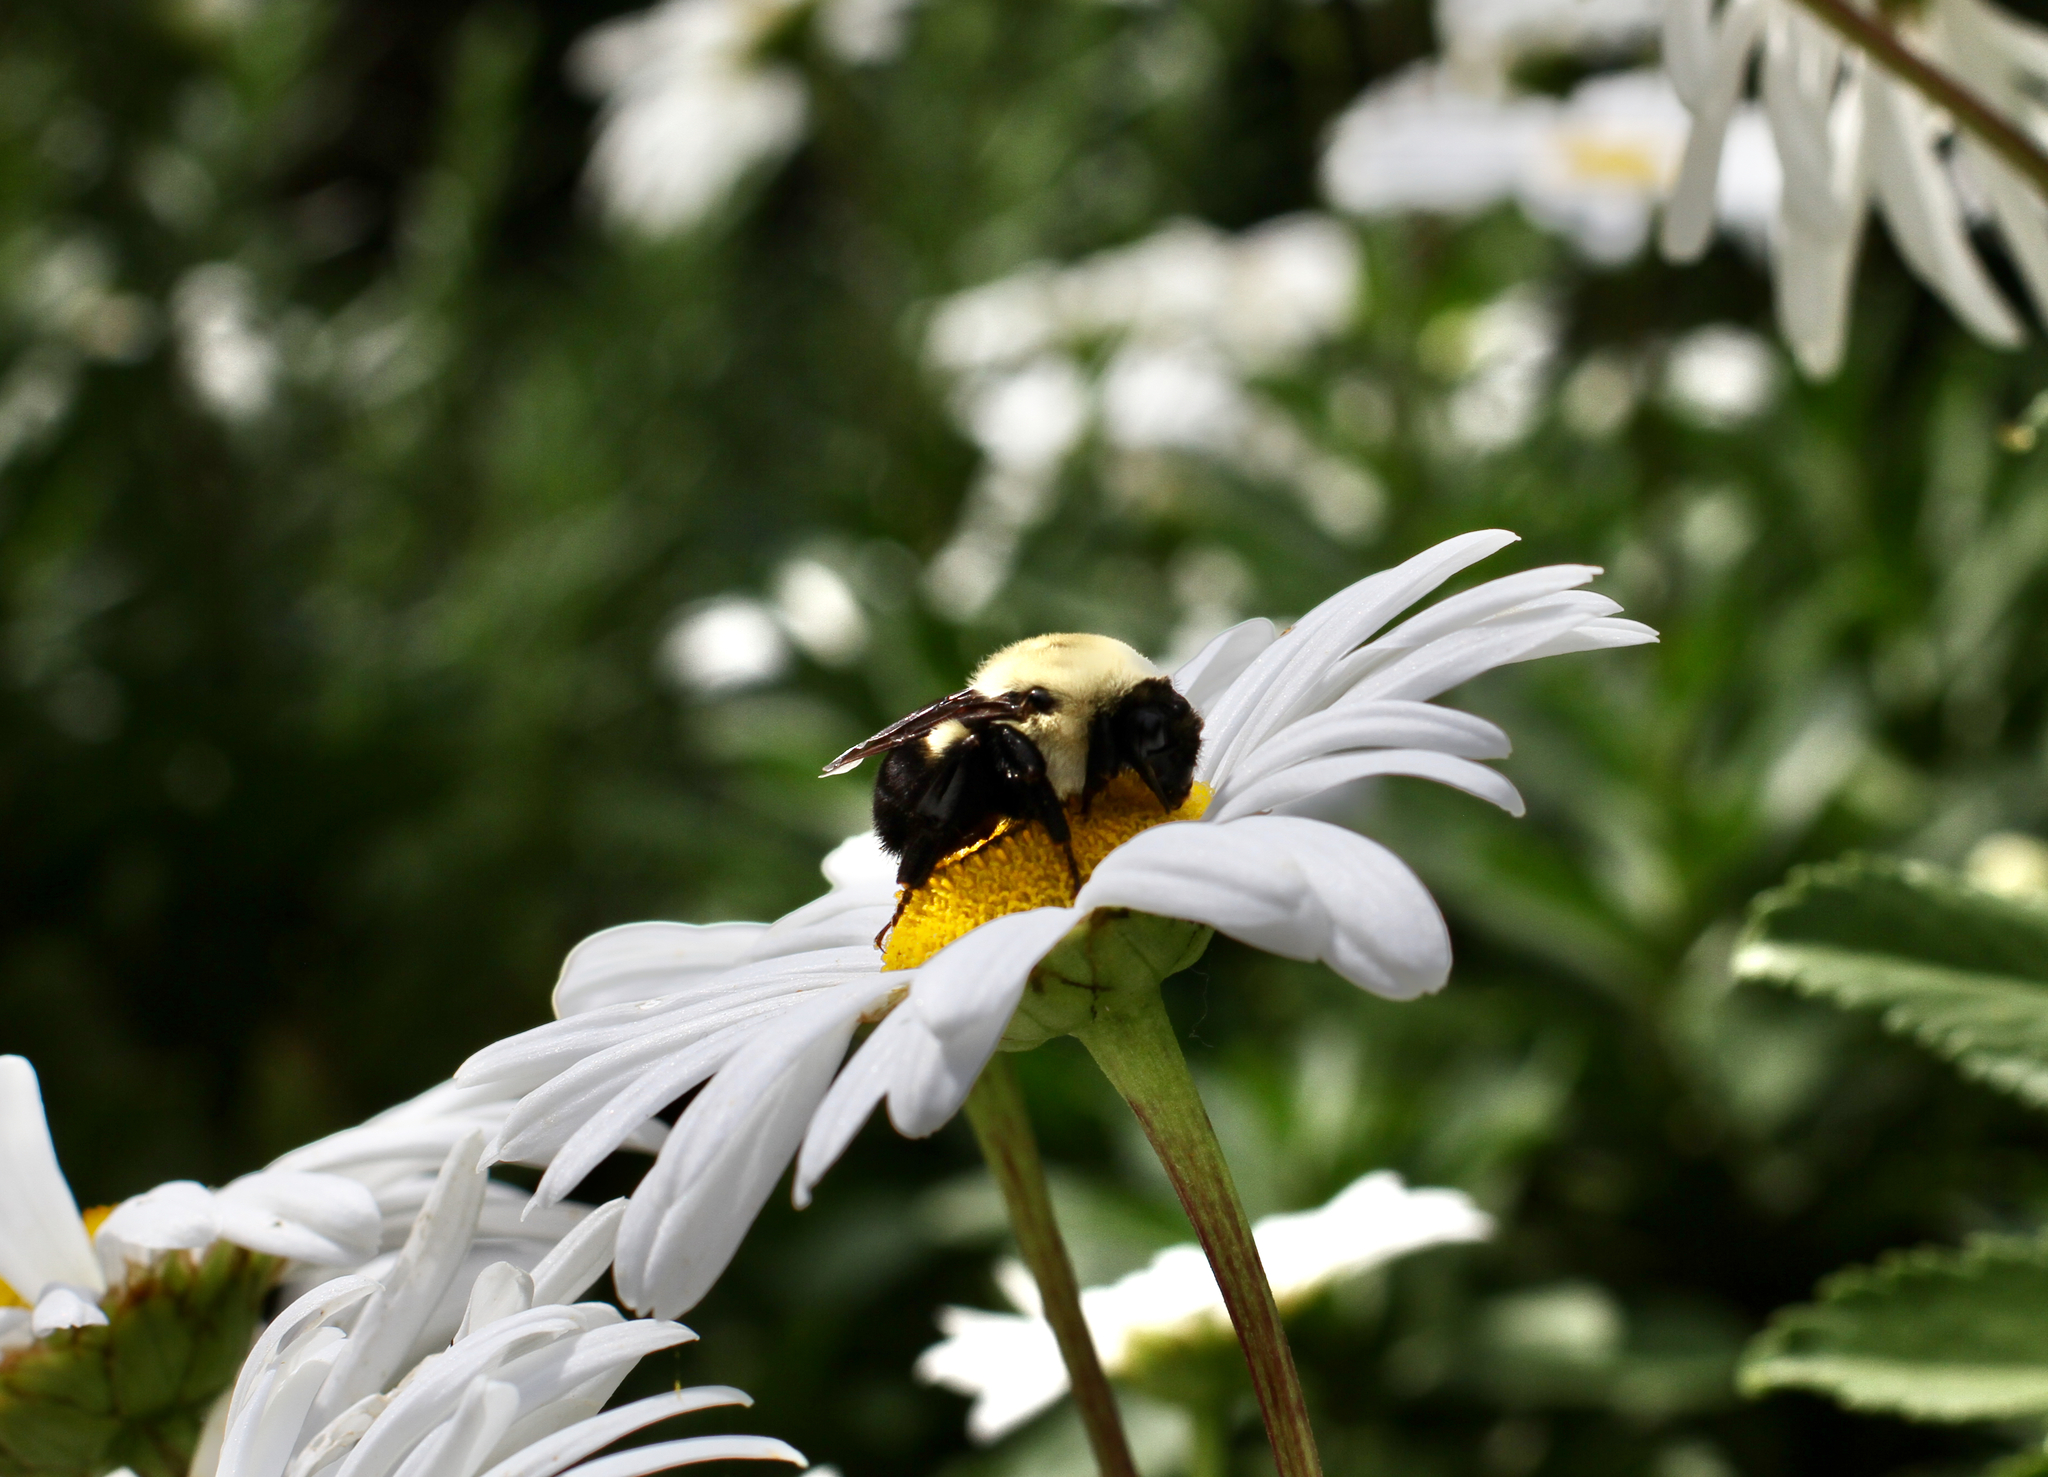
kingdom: Animalia
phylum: Arthropoda
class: Insecta
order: Hymenoptera
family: Apidae
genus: Bombus
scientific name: Bombus griseocollis
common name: Brown-belted bumble bee
